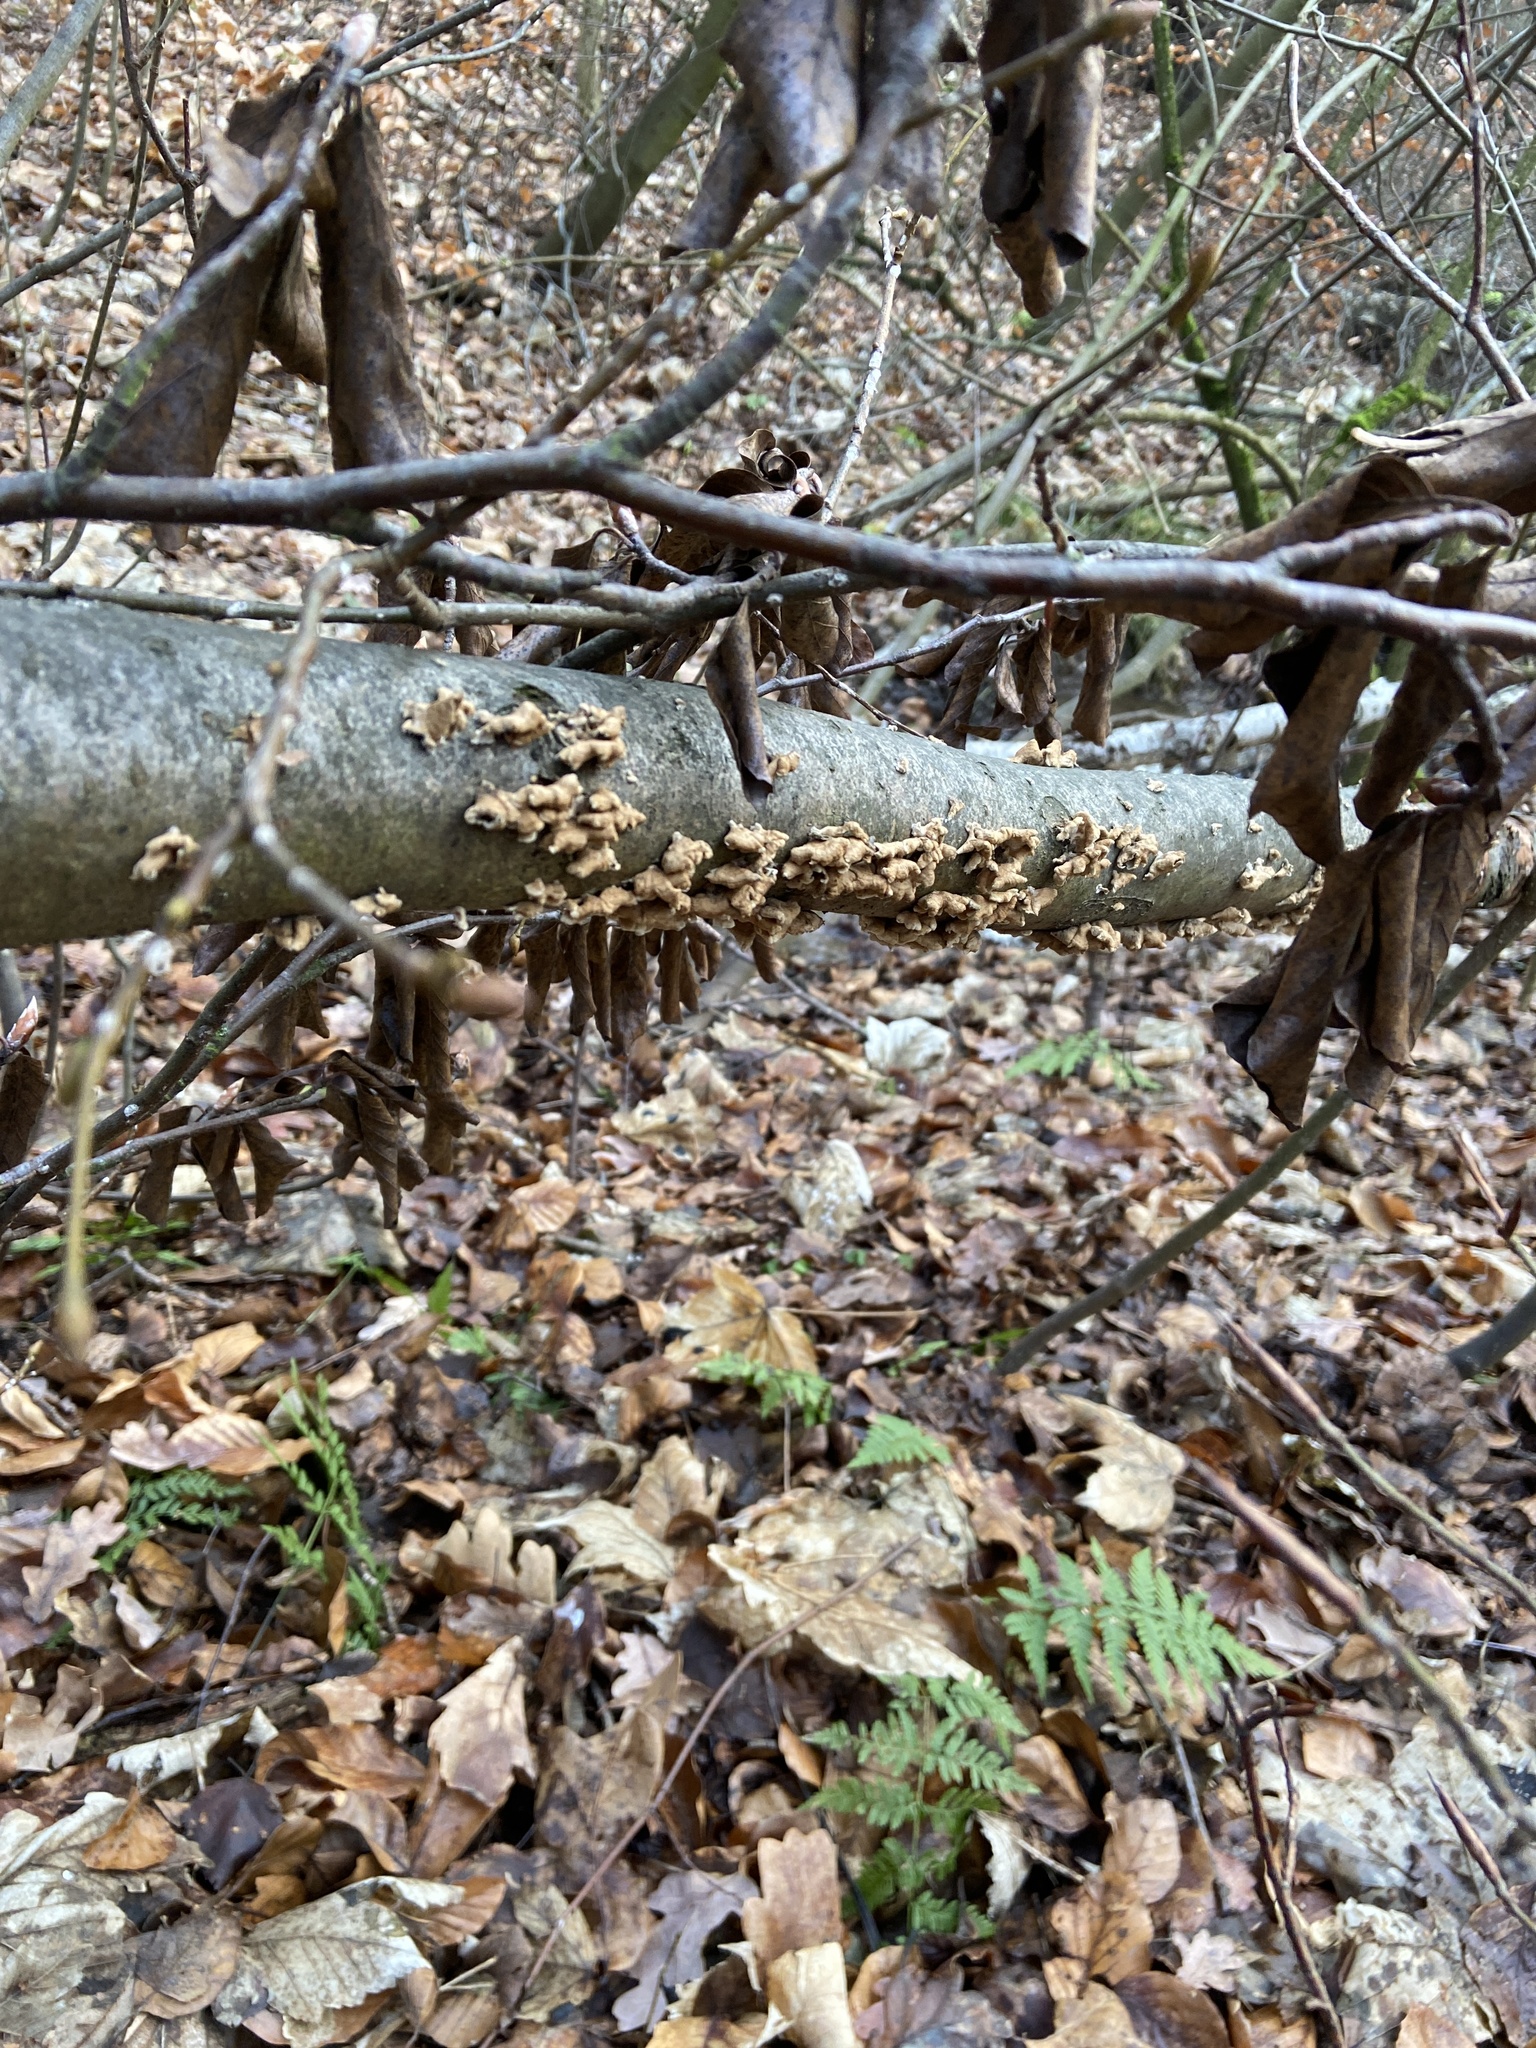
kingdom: Fungi
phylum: Basidiomycota
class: Agaricomycetes
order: Amylocorticiales
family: Amylocorticiaceae
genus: Plicaturopsis
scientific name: Plicaturopsis crispa
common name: Crimped gill
